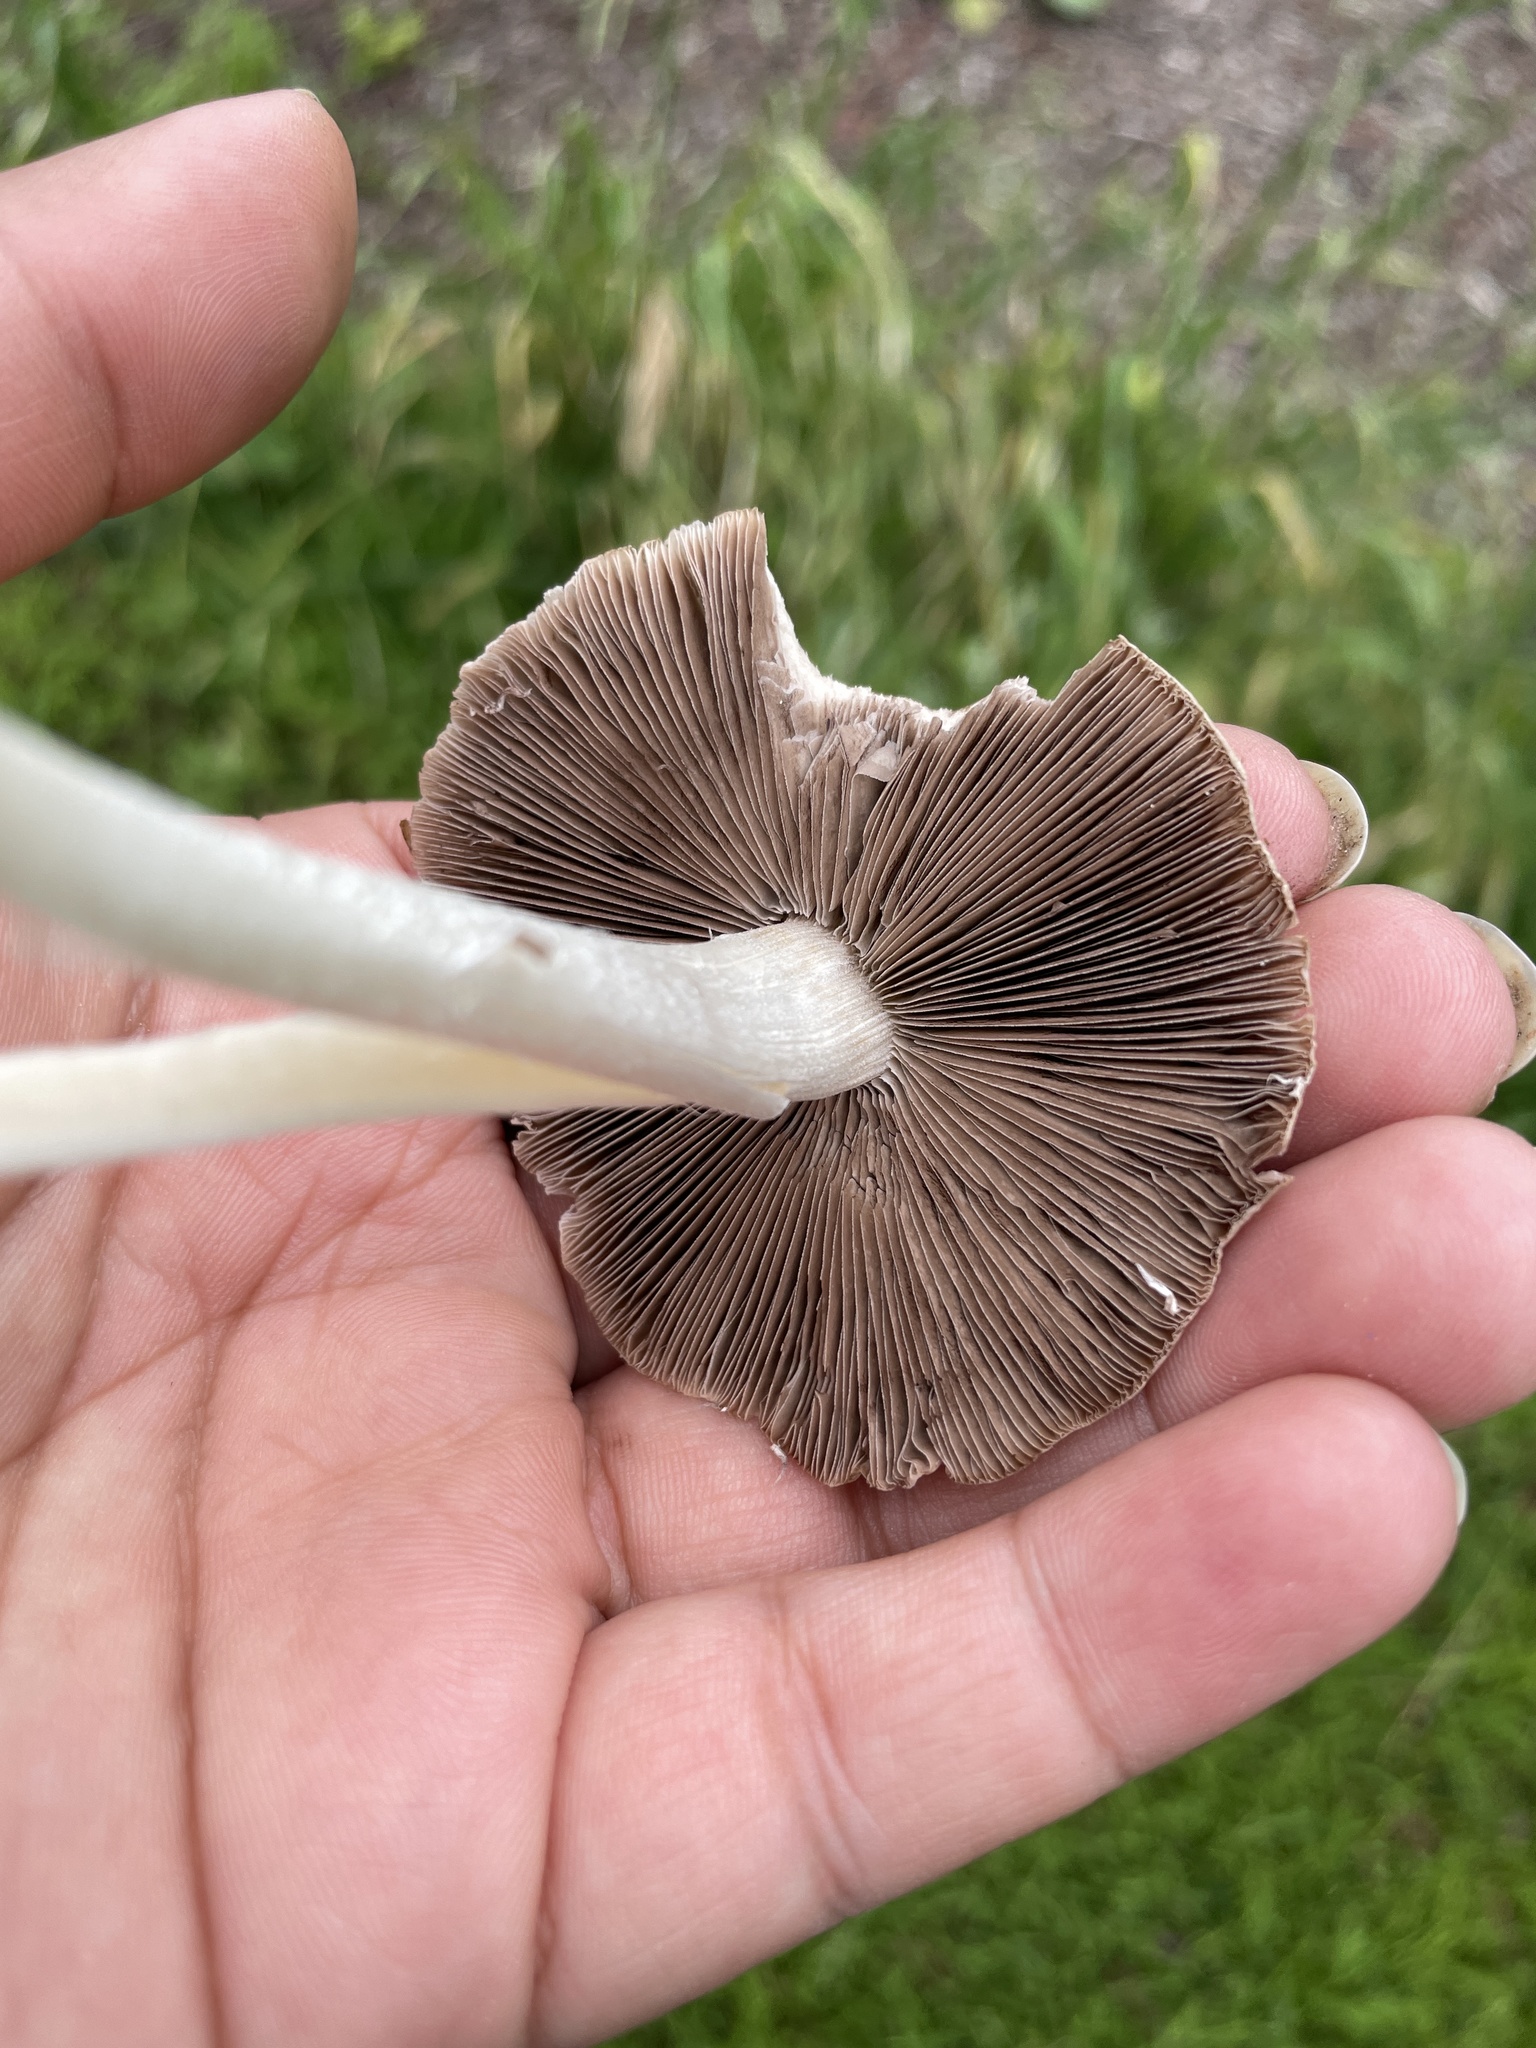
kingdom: Fungi
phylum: Basidiomycota
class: Agaricomycetes
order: Agaricales
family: Psathyrellaceae
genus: Candolleomyces
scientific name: Candolleomyces candolleanus
